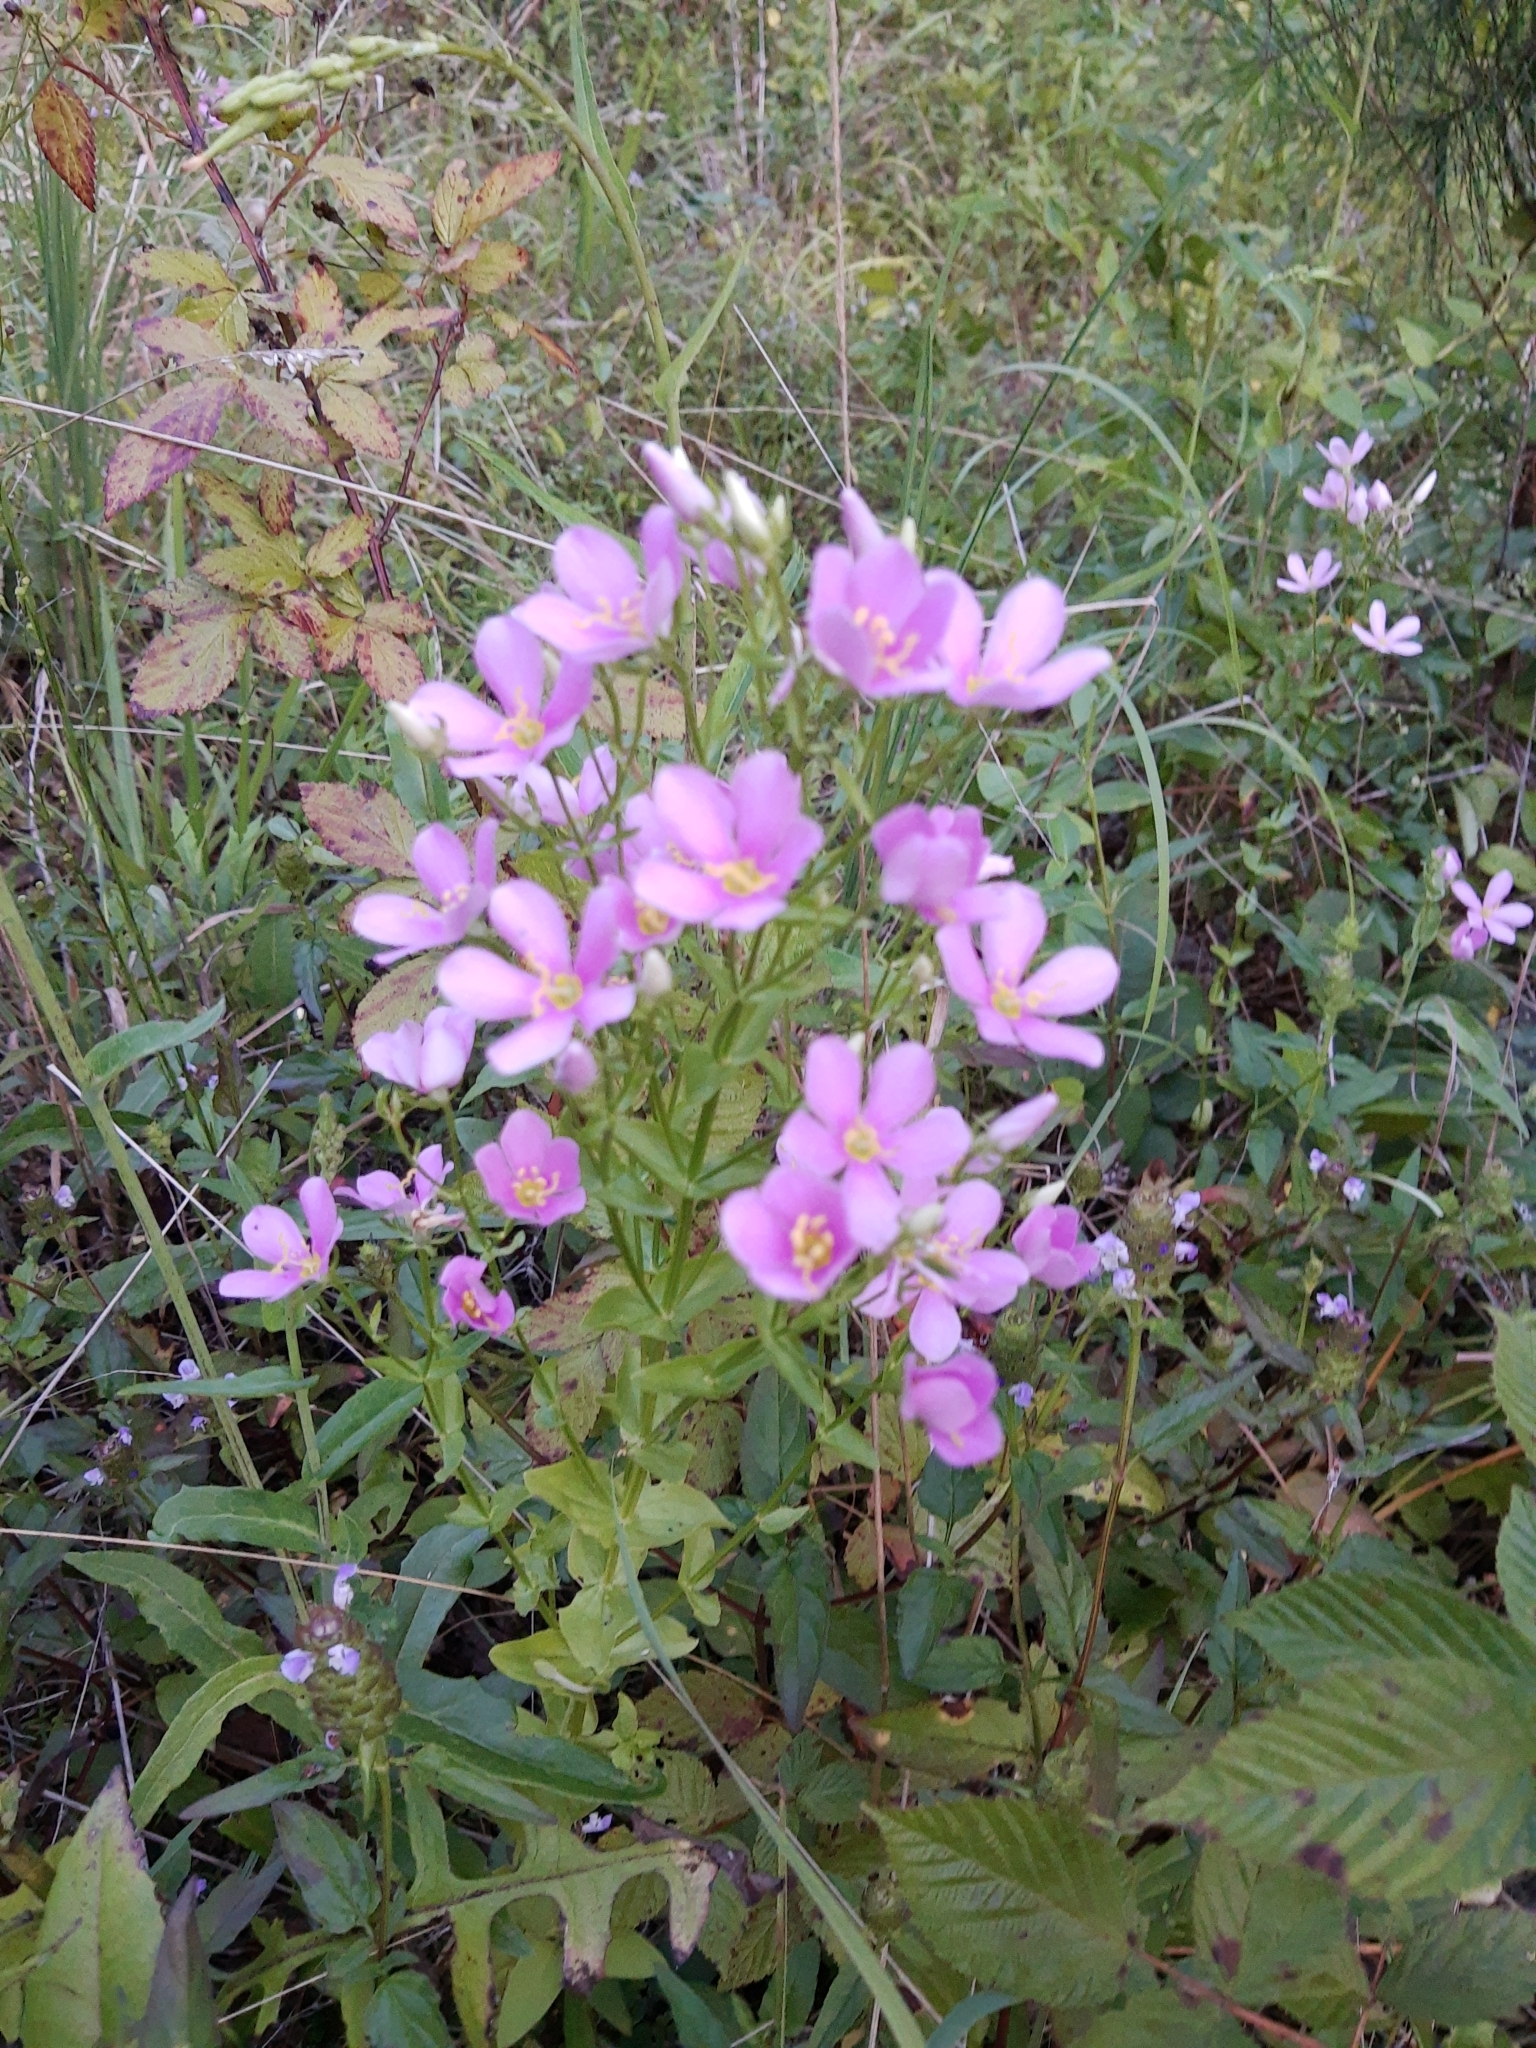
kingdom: Plantae
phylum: Tracheophyta
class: Magnoliopsida
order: Gentianales
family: Gentianaceae
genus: Sabatia
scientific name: Sabatia angularis
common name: Rose-pink
